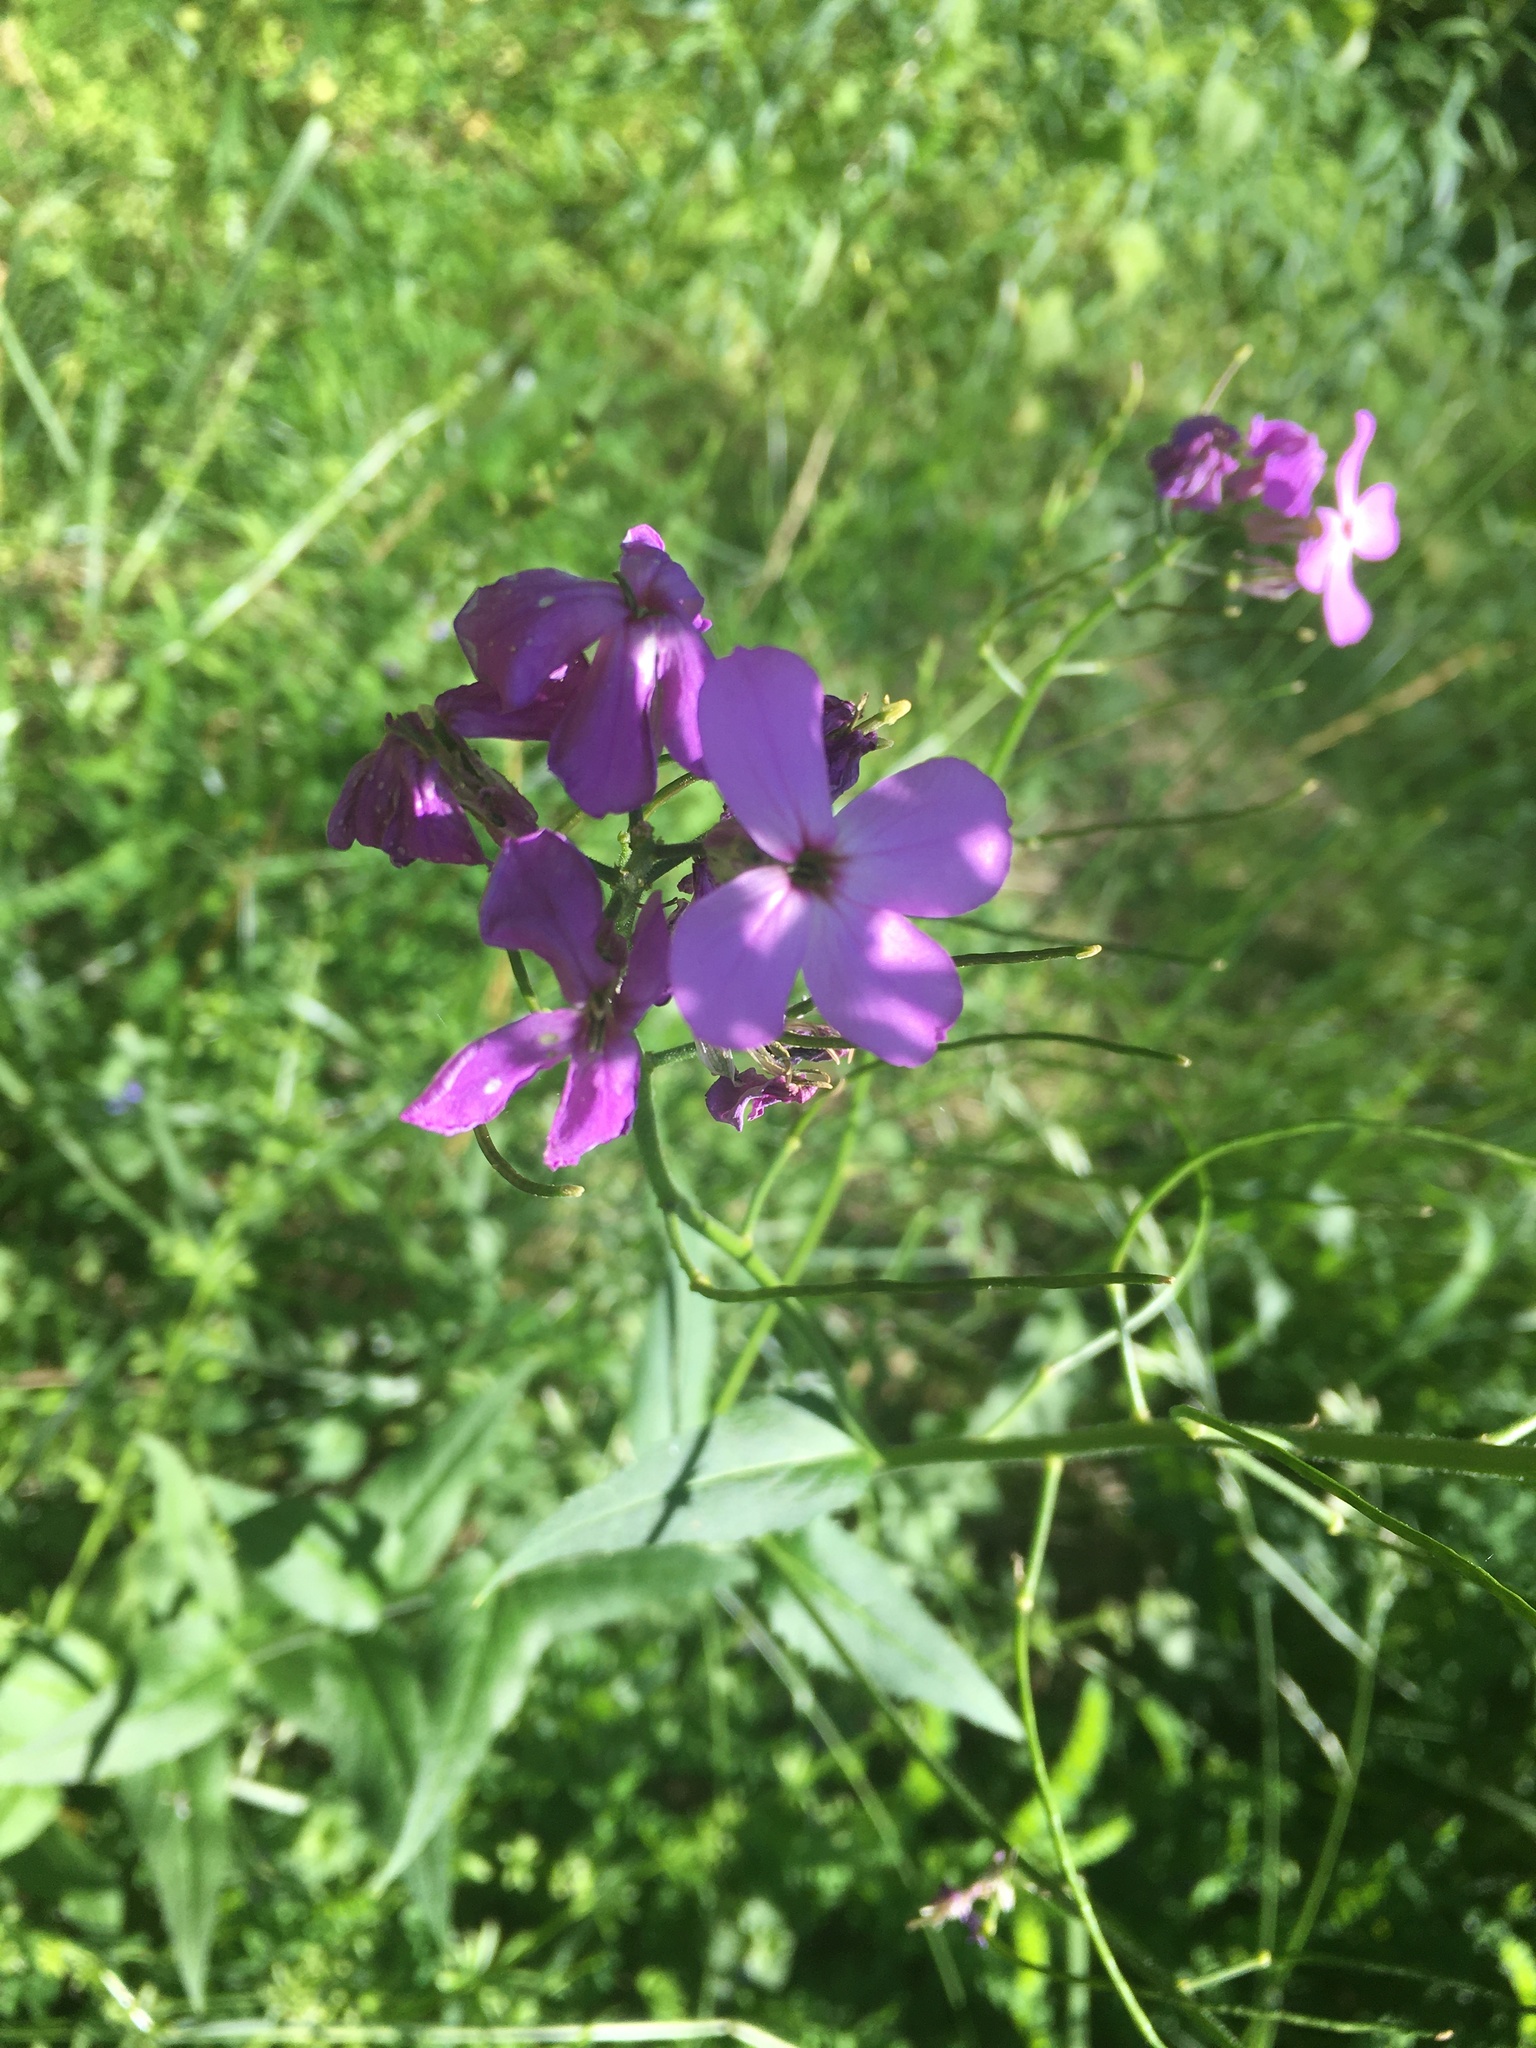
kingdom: Plantae
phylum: Tracheophyta
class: Magnoliopsida
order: Brassicales
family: Brassicaceae
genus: Hesperis
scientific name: Hesperis matronalis
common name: Dame's-violet
